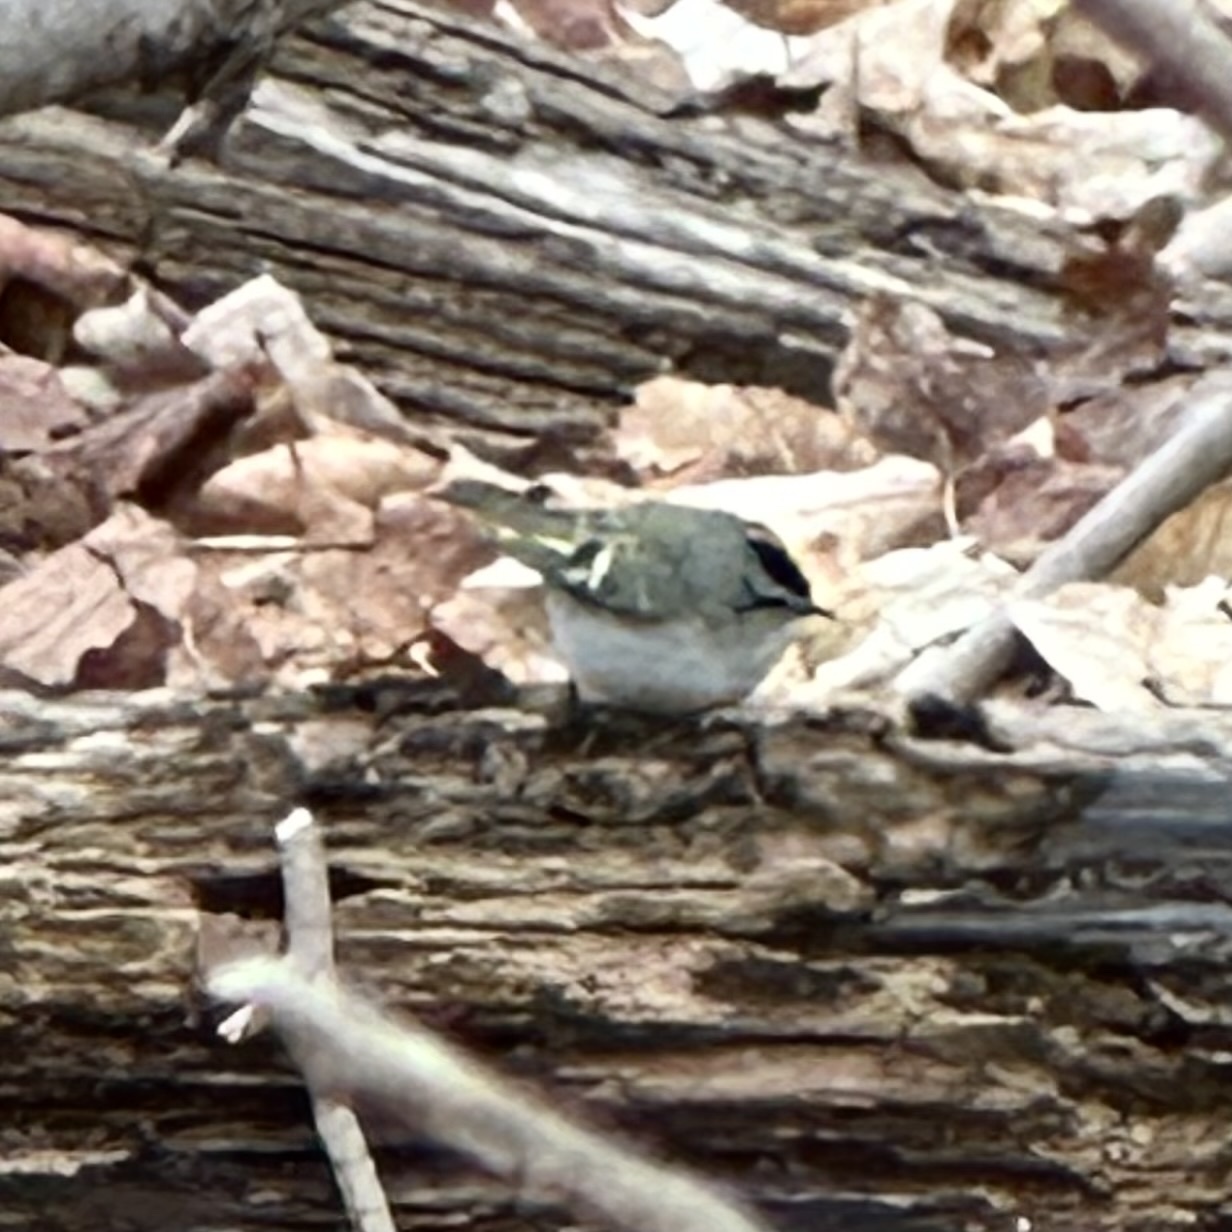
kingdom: Animalia
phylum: Chordata
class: Aves
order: Passeriformes
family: Regulidae
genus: Regulus
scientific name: Regulus satrapa
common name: Golden-crowned kinglet
